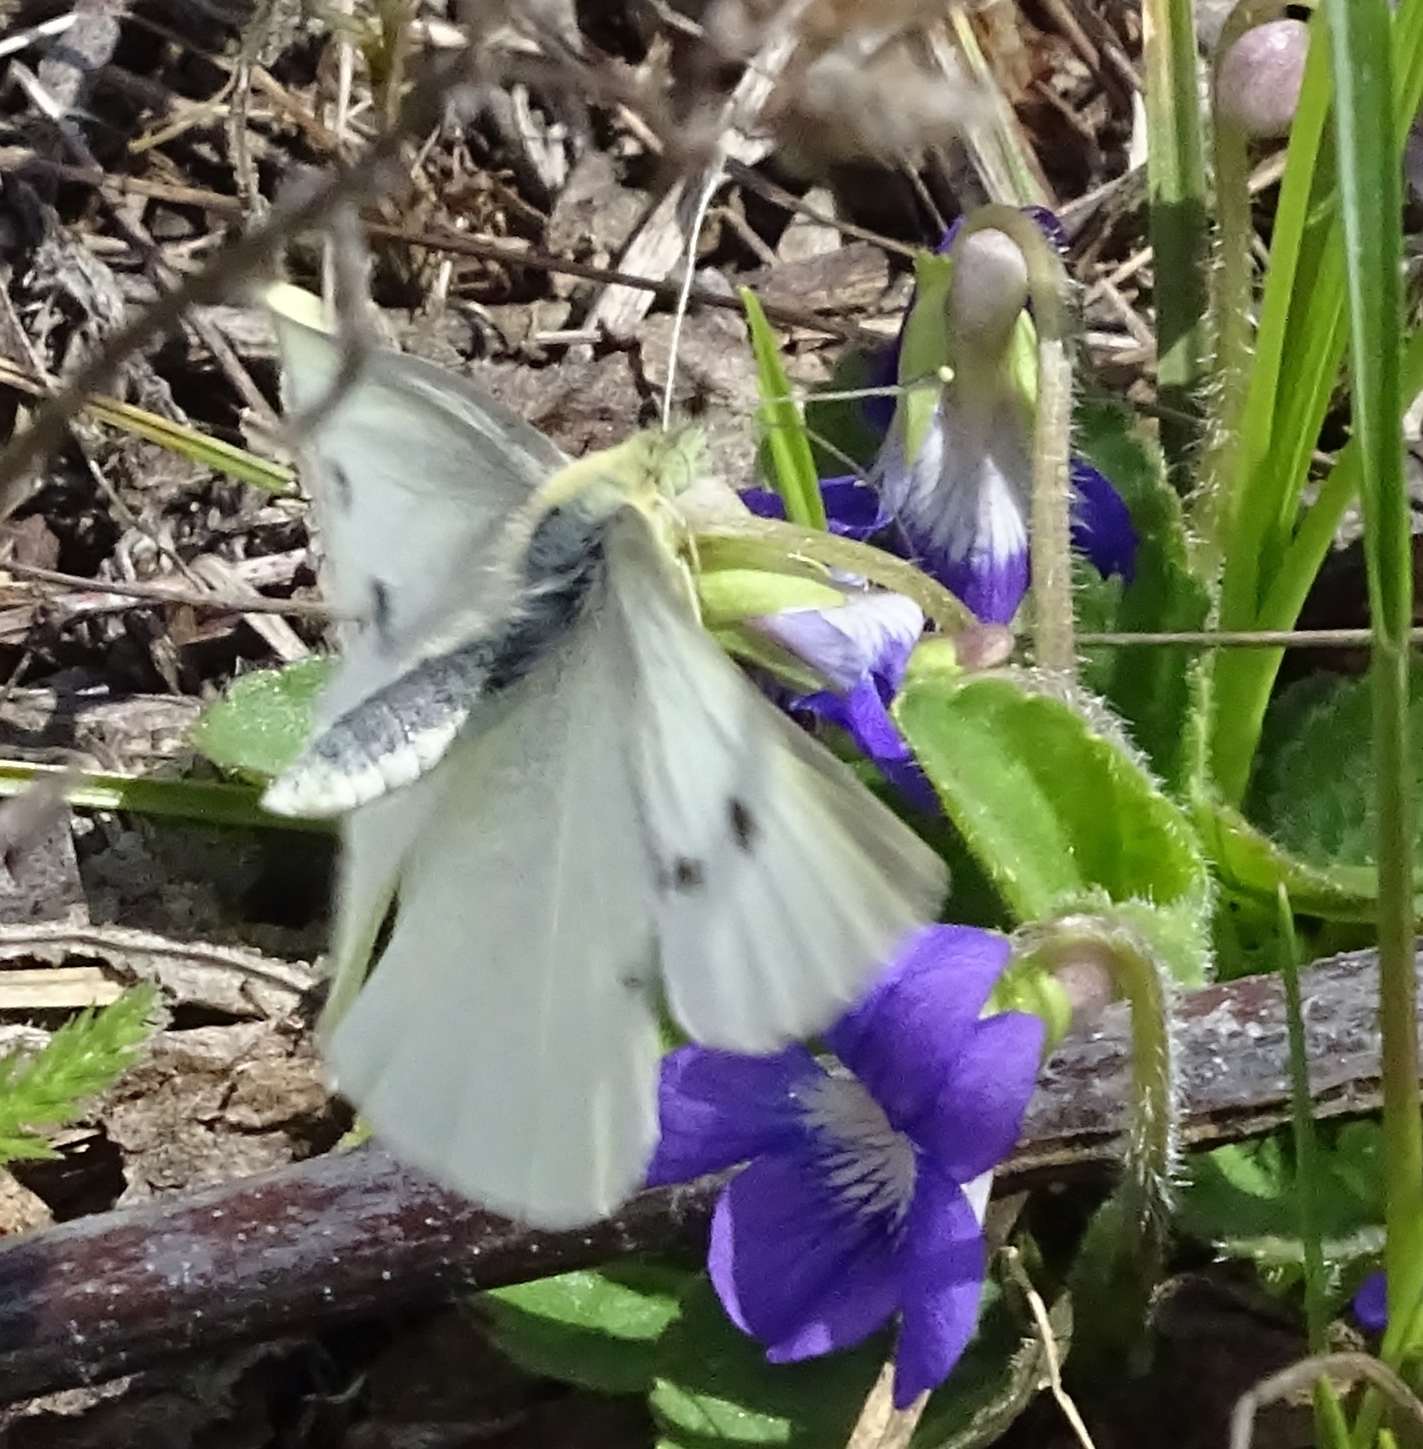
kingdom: Animalia
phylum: Arthropoda
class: Insecta
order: Lepidoptera
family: Pieridae
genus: Pieris
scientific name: Pieris rapae
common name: Small white
